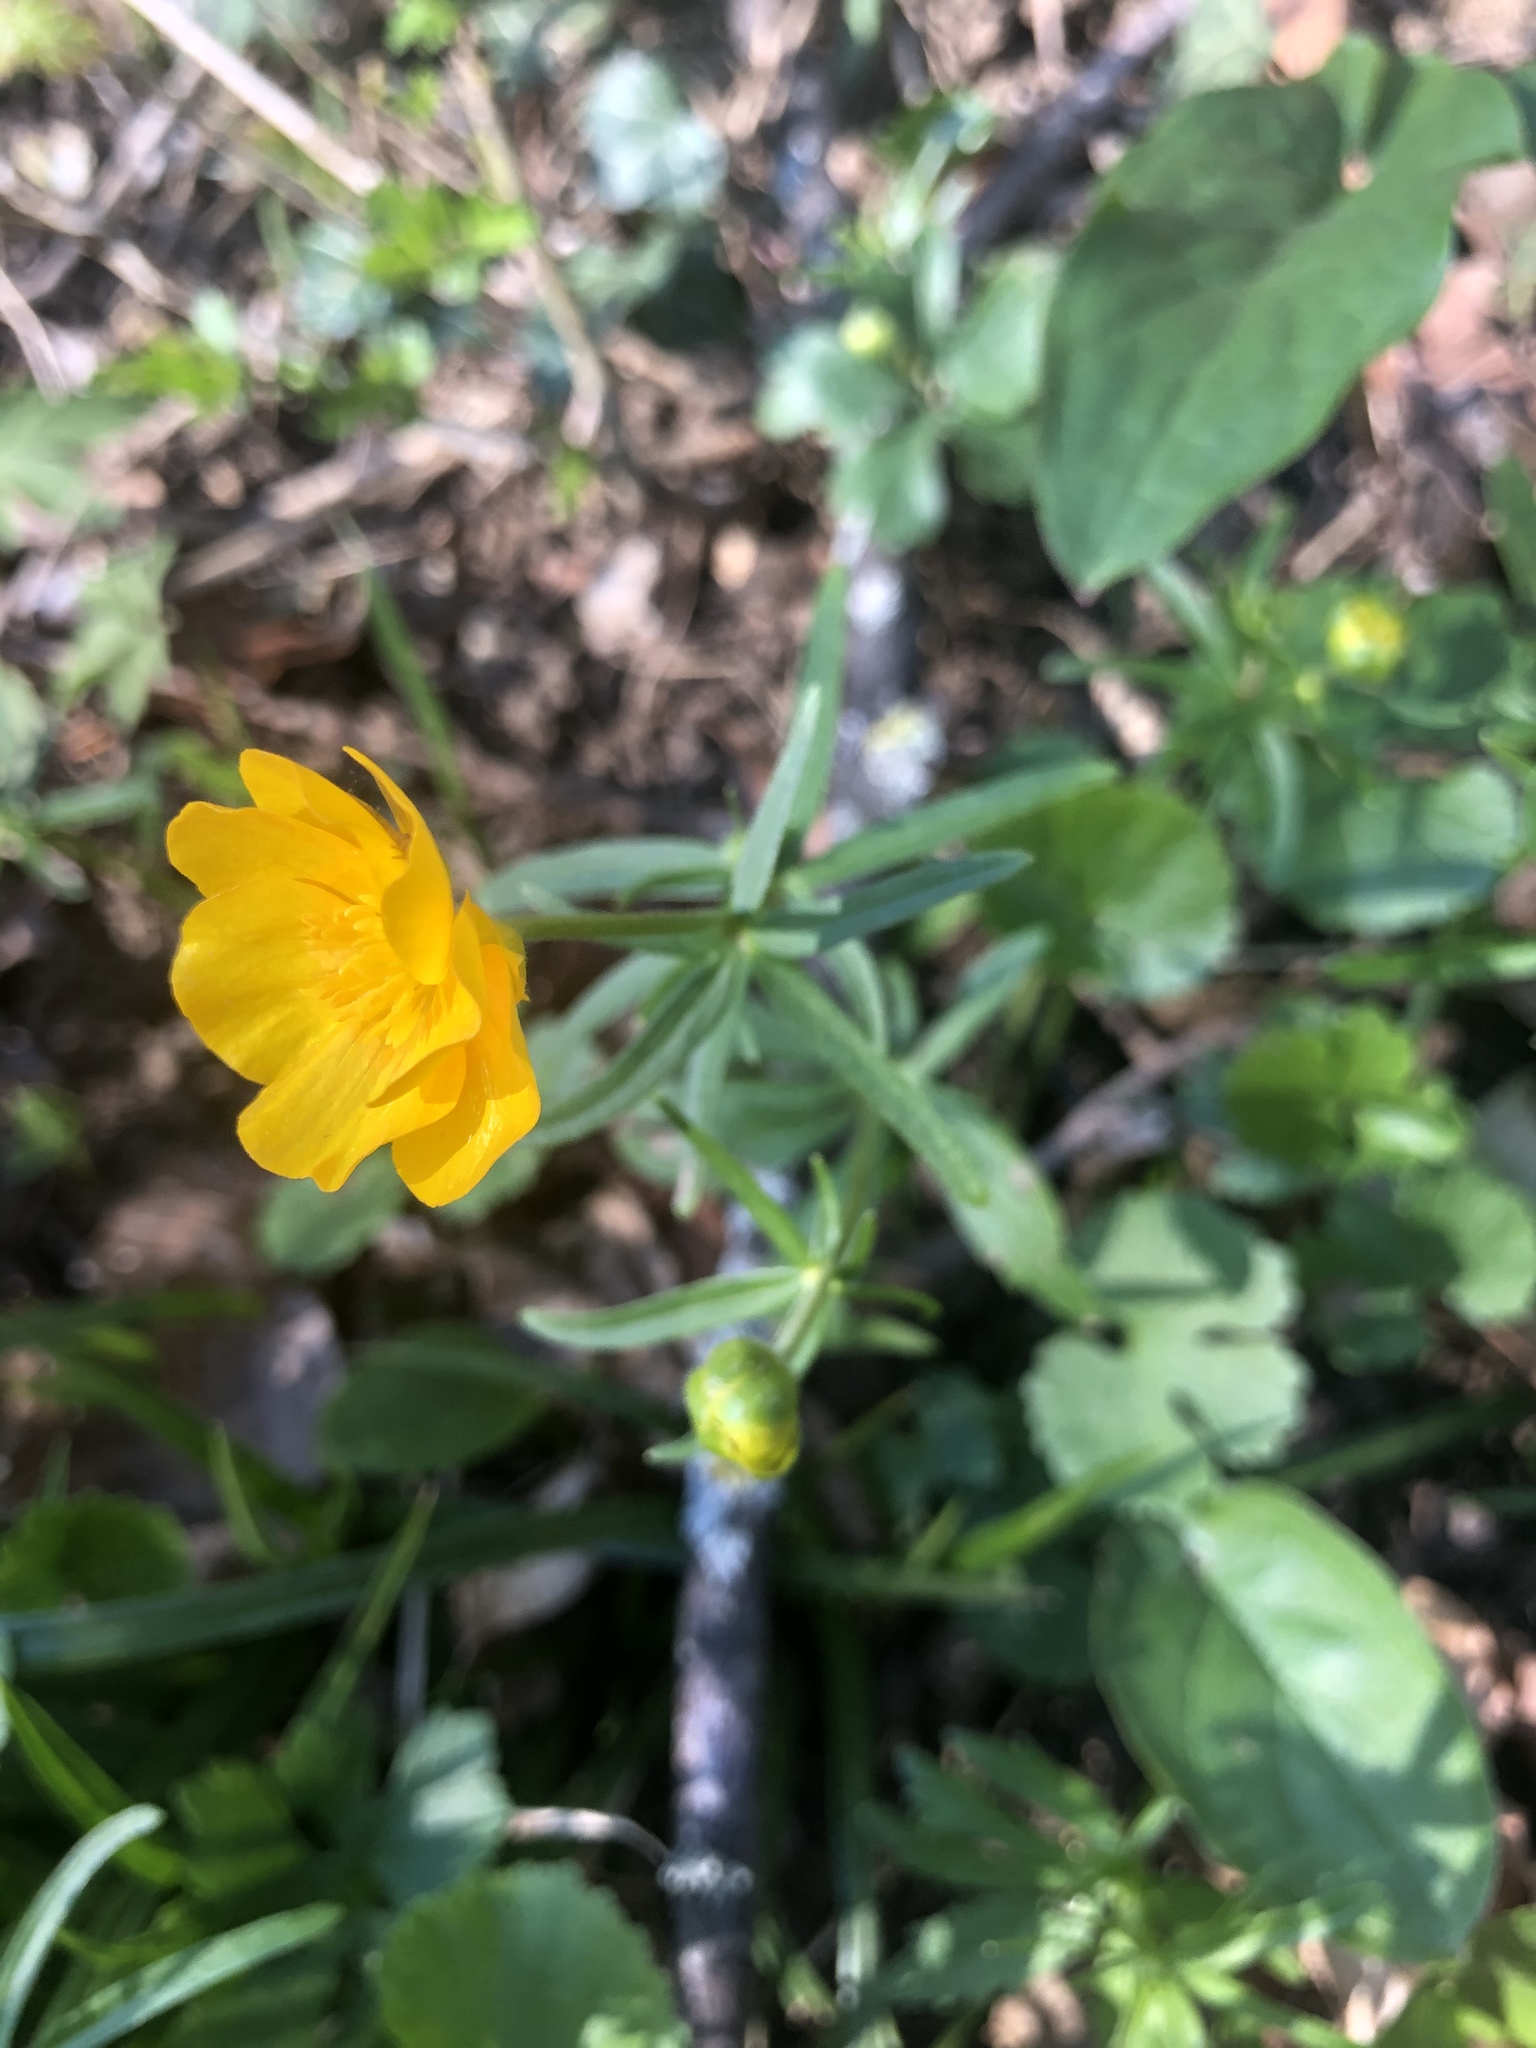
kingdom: Plantae
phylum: Tracheophyta
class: Magnoliopsida
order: Ranunculales
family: Ranunculaceae
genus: Ranunculus
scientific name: Ranunculus auricomus
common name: Goldilocks buttercup
